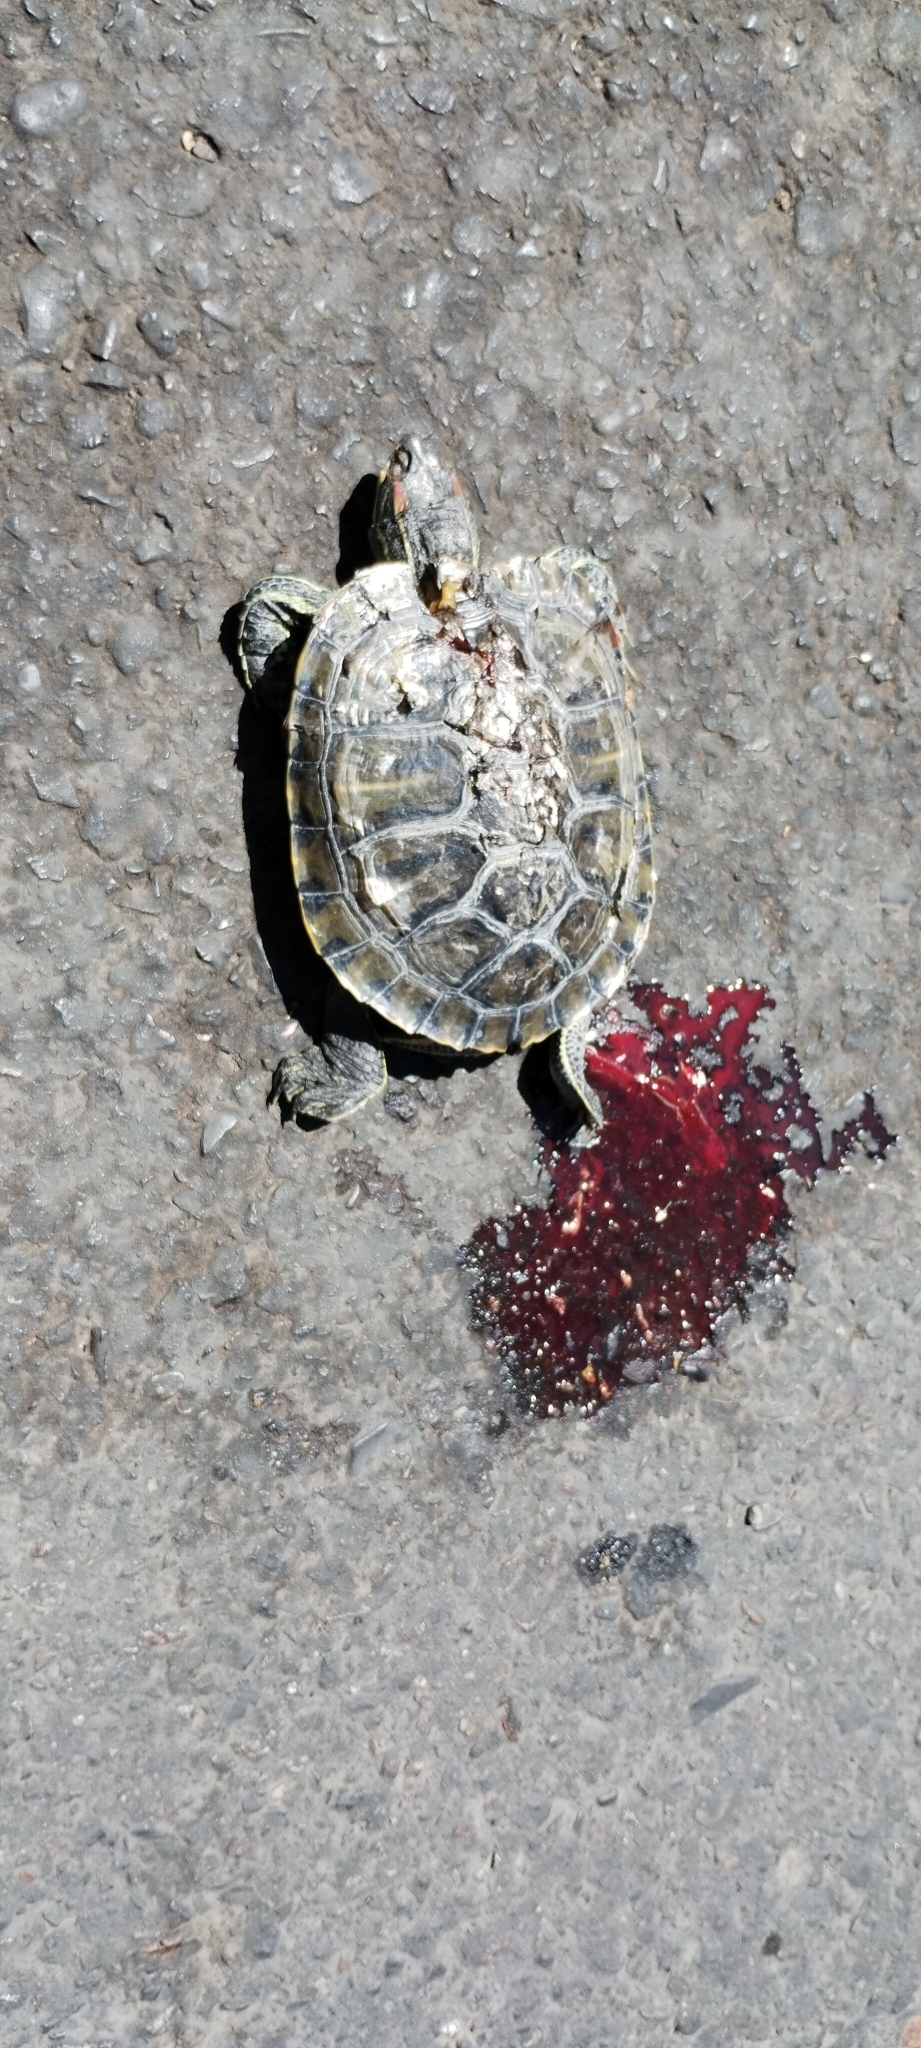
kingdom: Animalia
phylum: Chordata
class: Testudines
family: Emydidae
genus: Trachemys
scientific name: Trachemys scripta
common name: Slider
